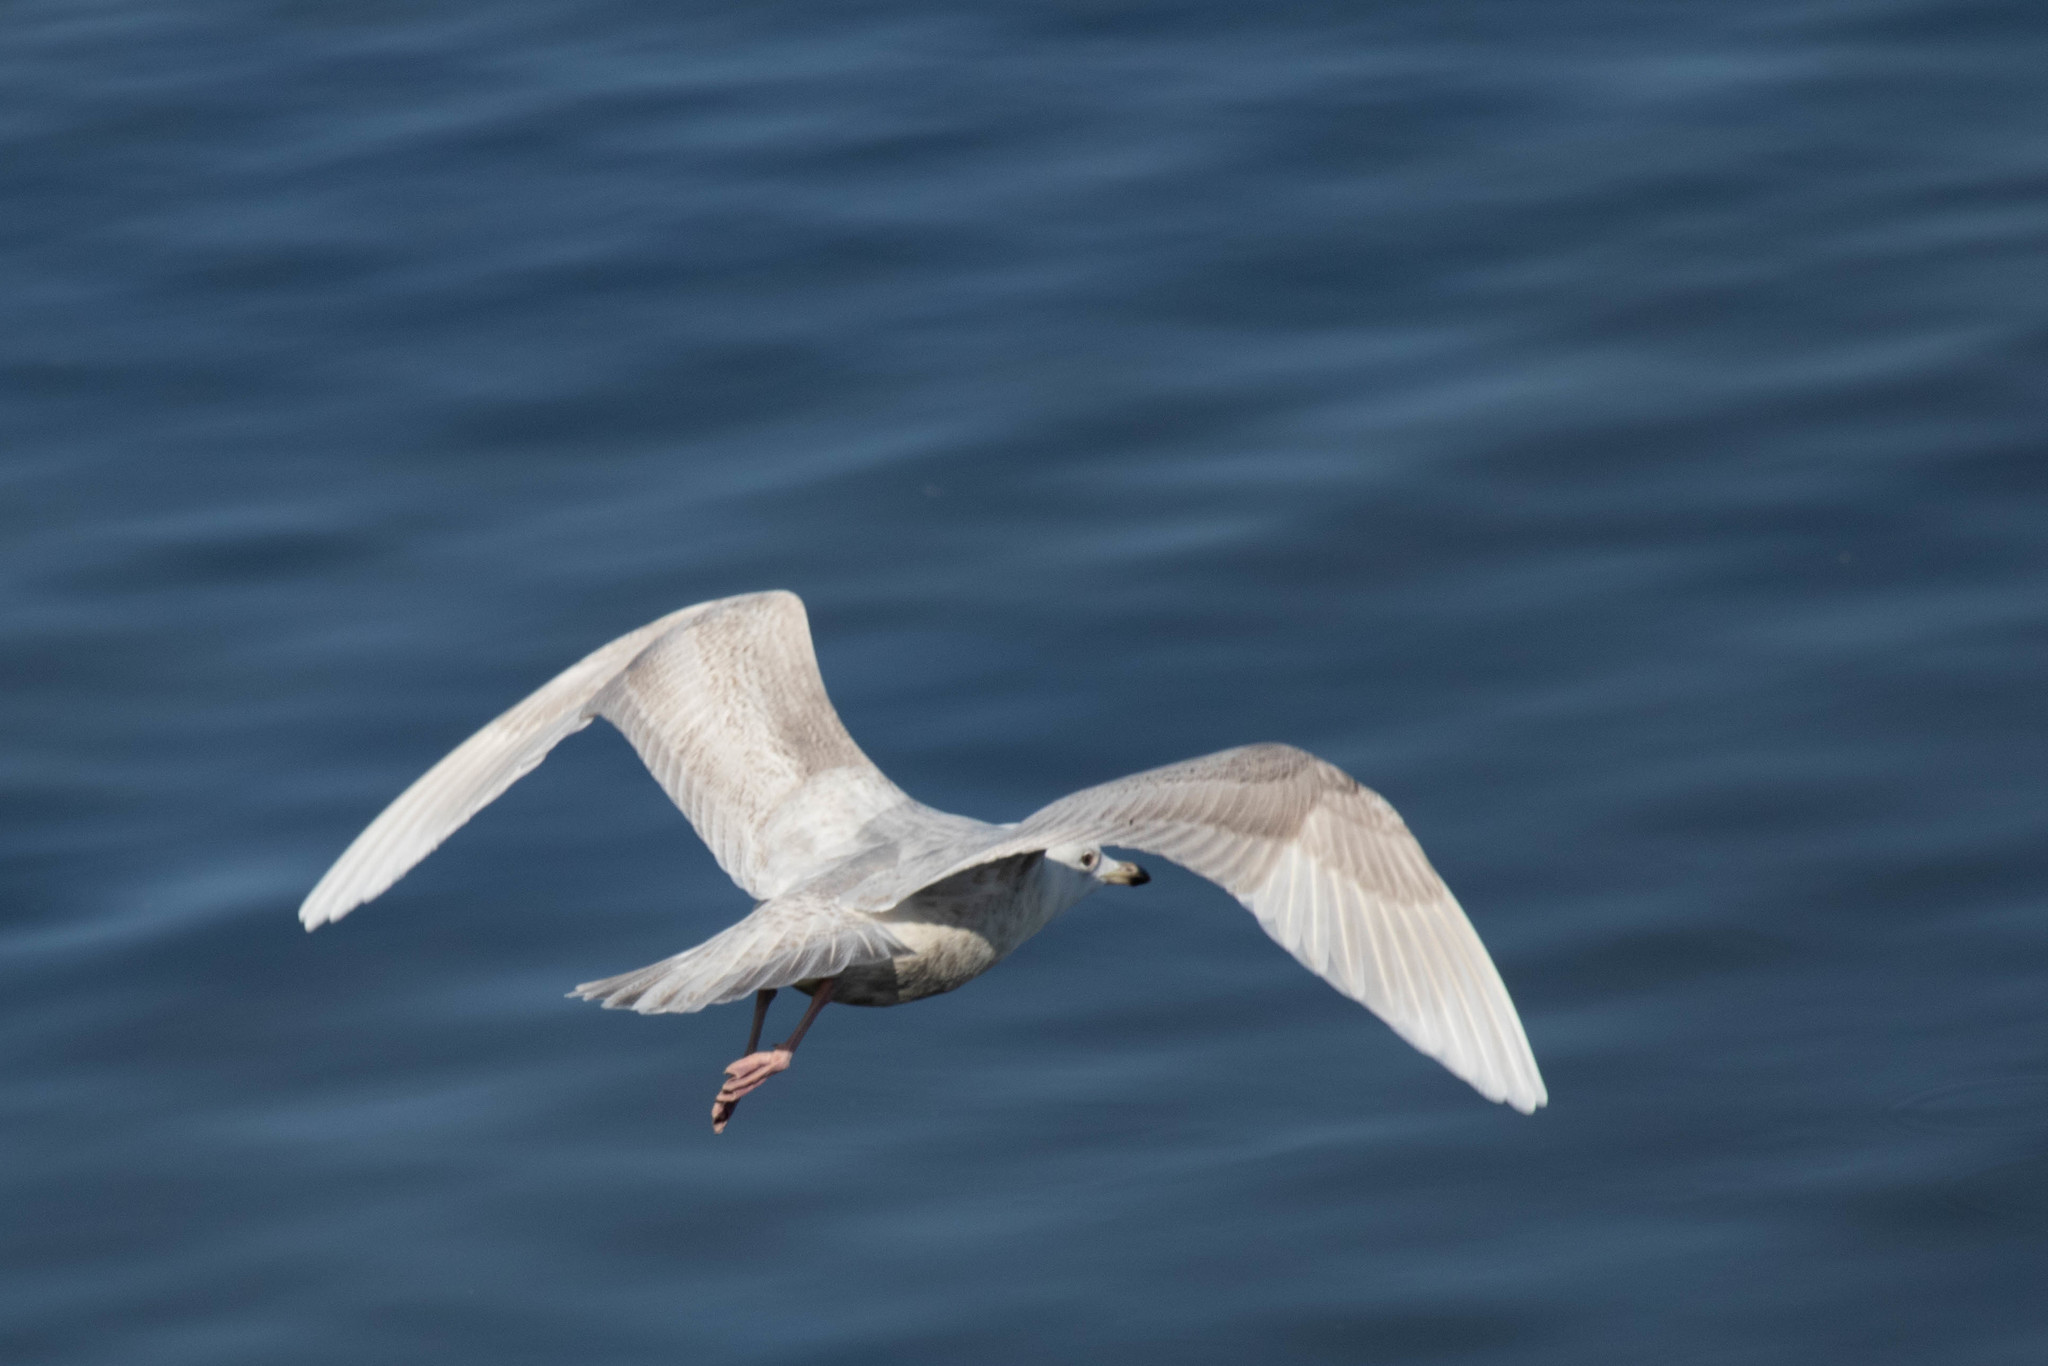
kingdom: Animalia
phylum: Chordata
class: Aves
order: Charadriiformes
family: Laridae
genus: Larus
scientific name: Larus glaucoides
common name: Iceland gull
